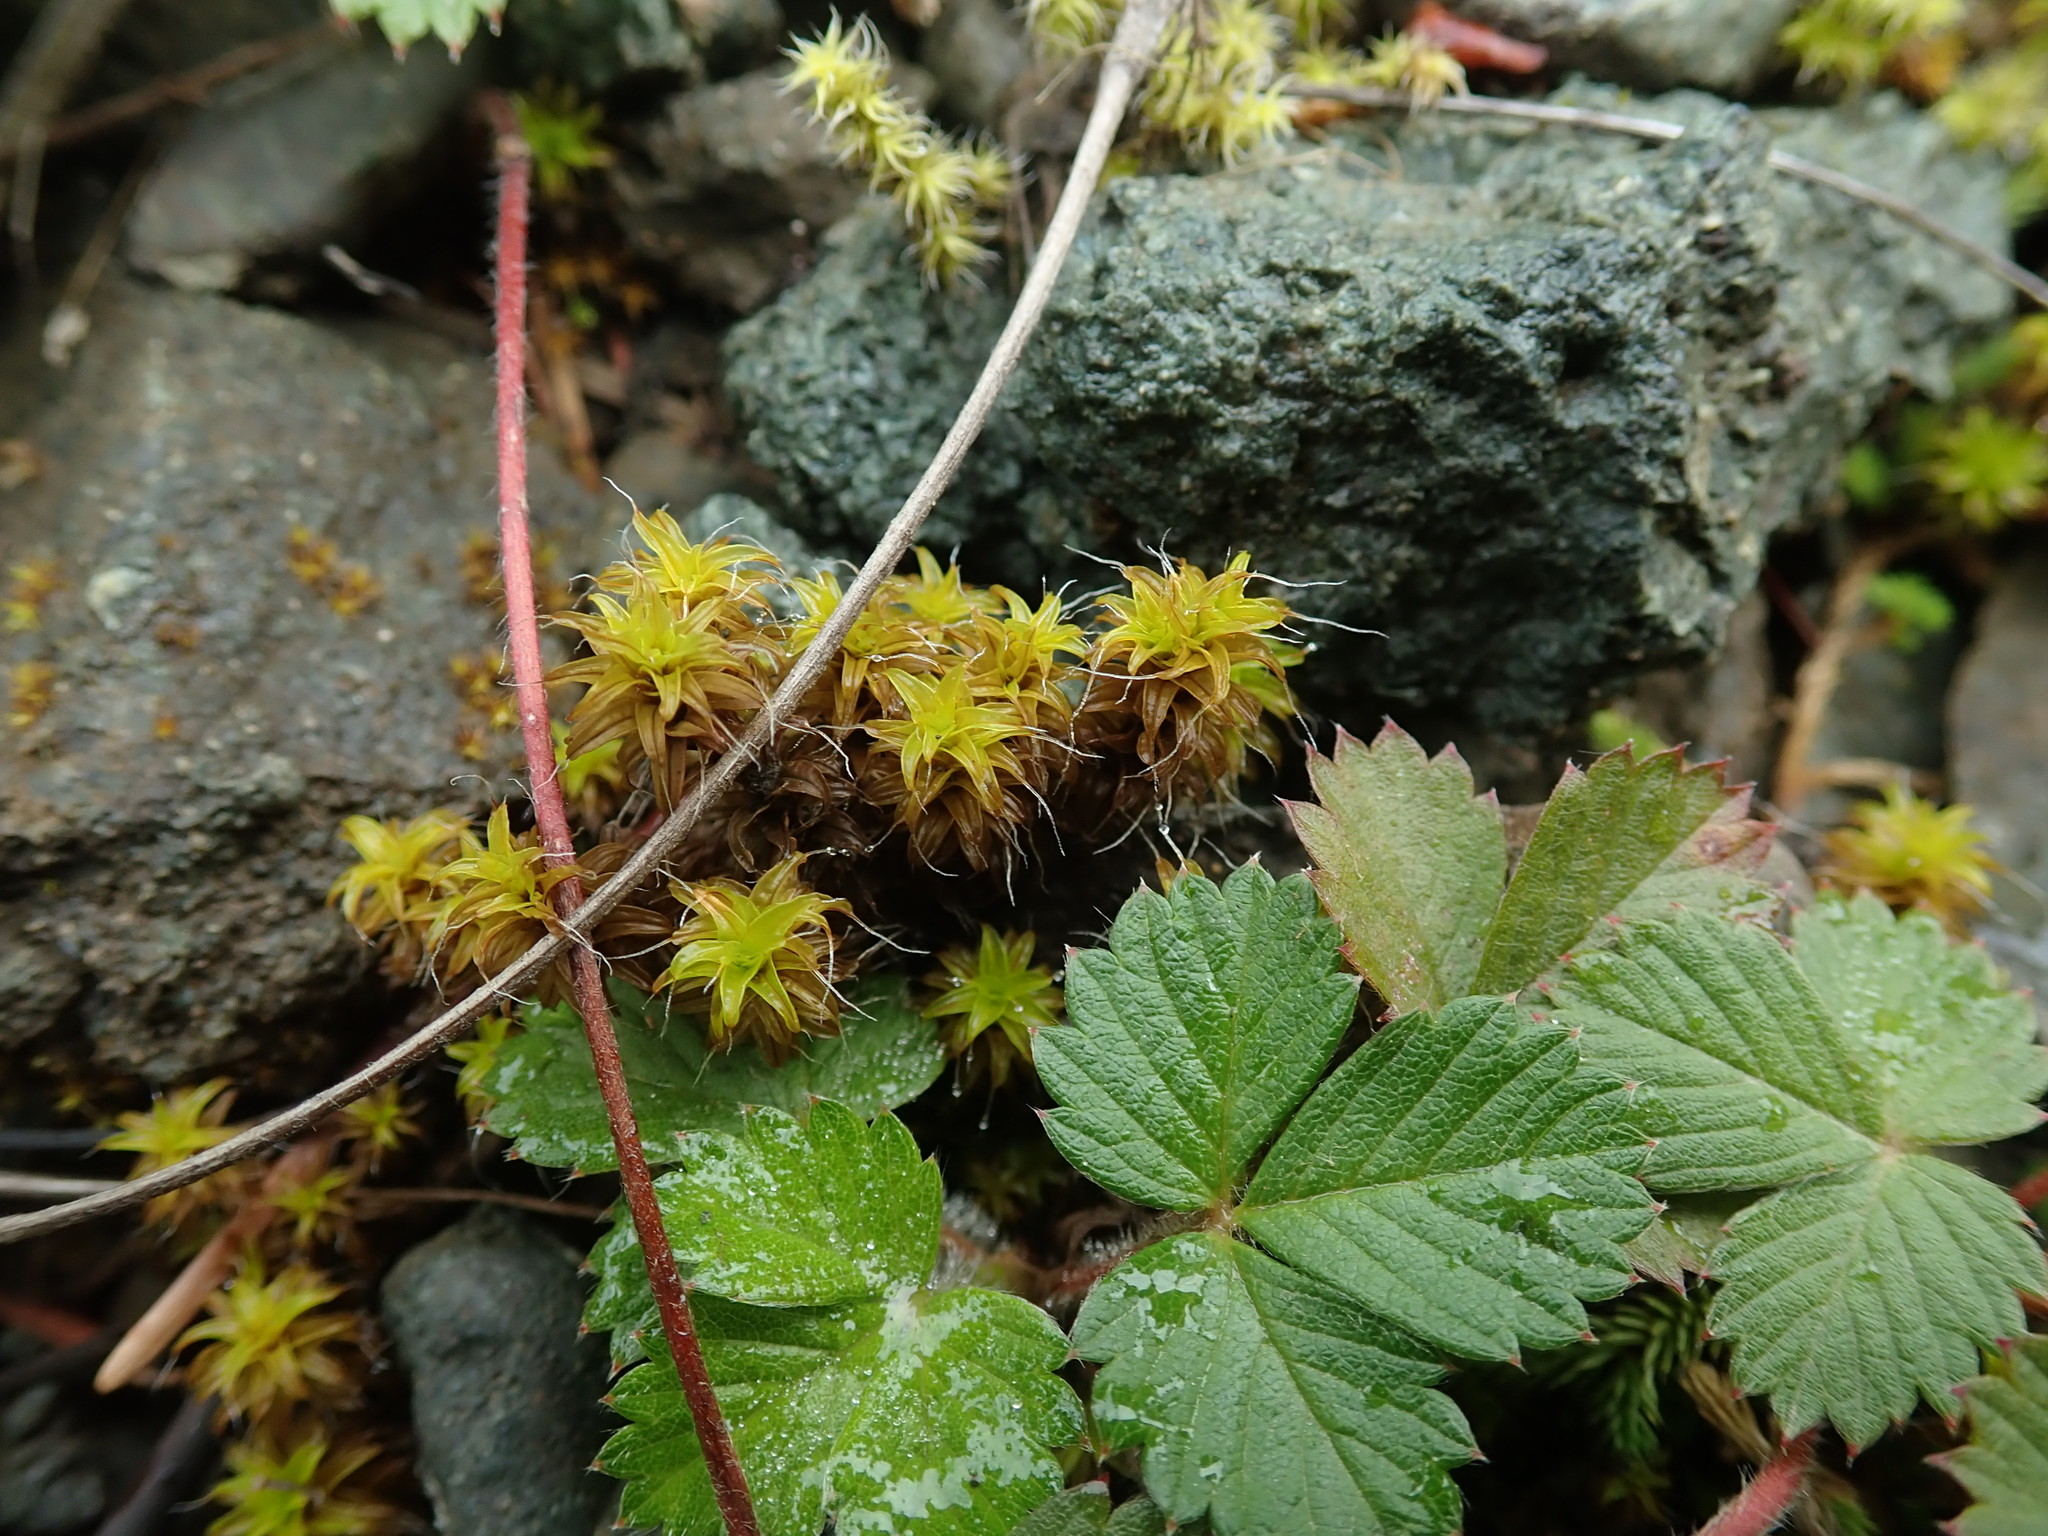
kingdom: Plantae
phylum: Bryophyta
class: Bryopsida
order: Pottiales
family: Pottiaceae
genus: Syntrichia
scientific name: Syntrichia princeps
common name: Brown screw-moss
